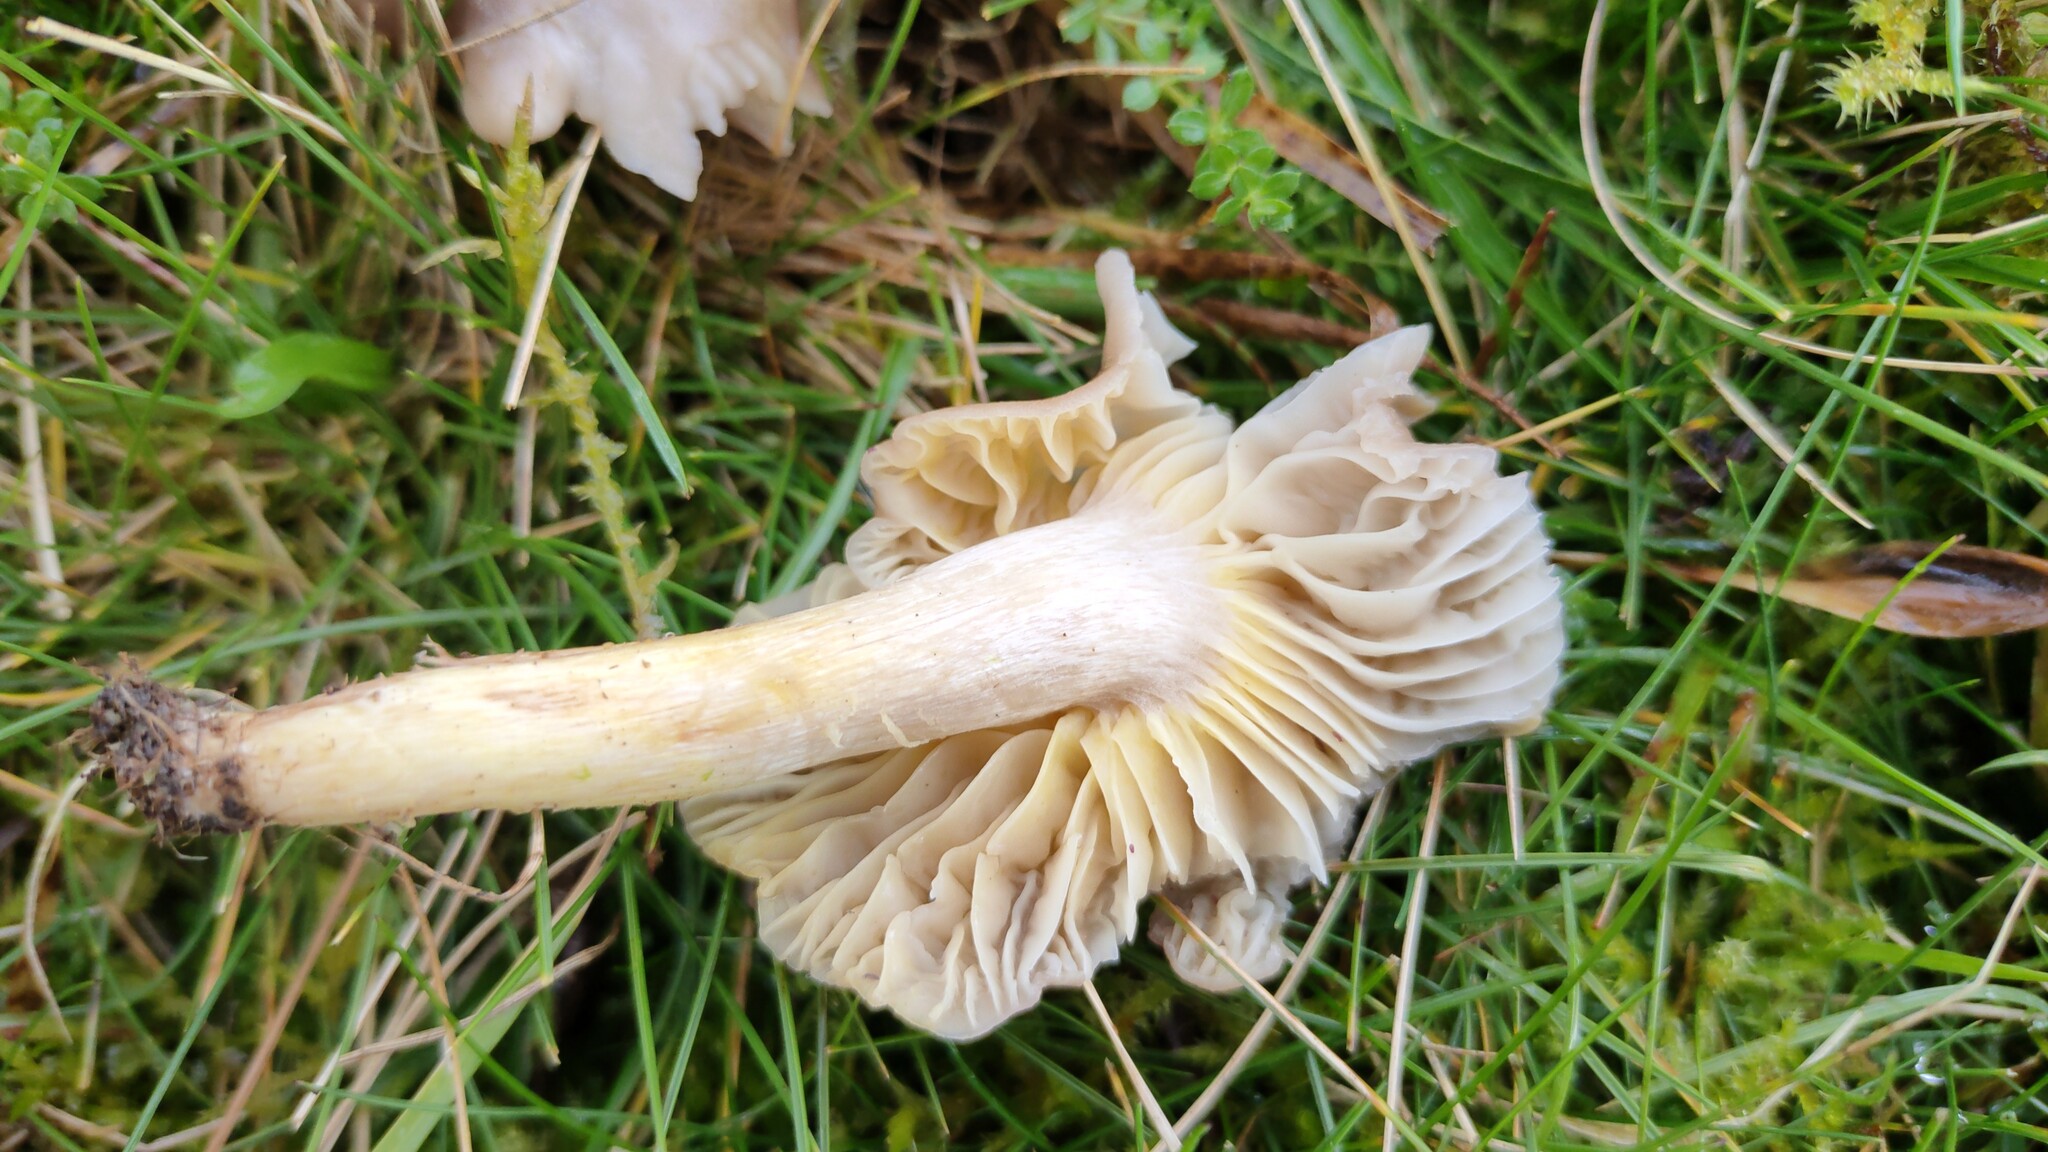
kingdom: Fungi
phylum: Basidiomycota
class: Agaricomycetes
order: Agaricales
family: Hygrophoraceae
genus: Cuphophyllus
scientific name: Cuphophyllus flavipes
